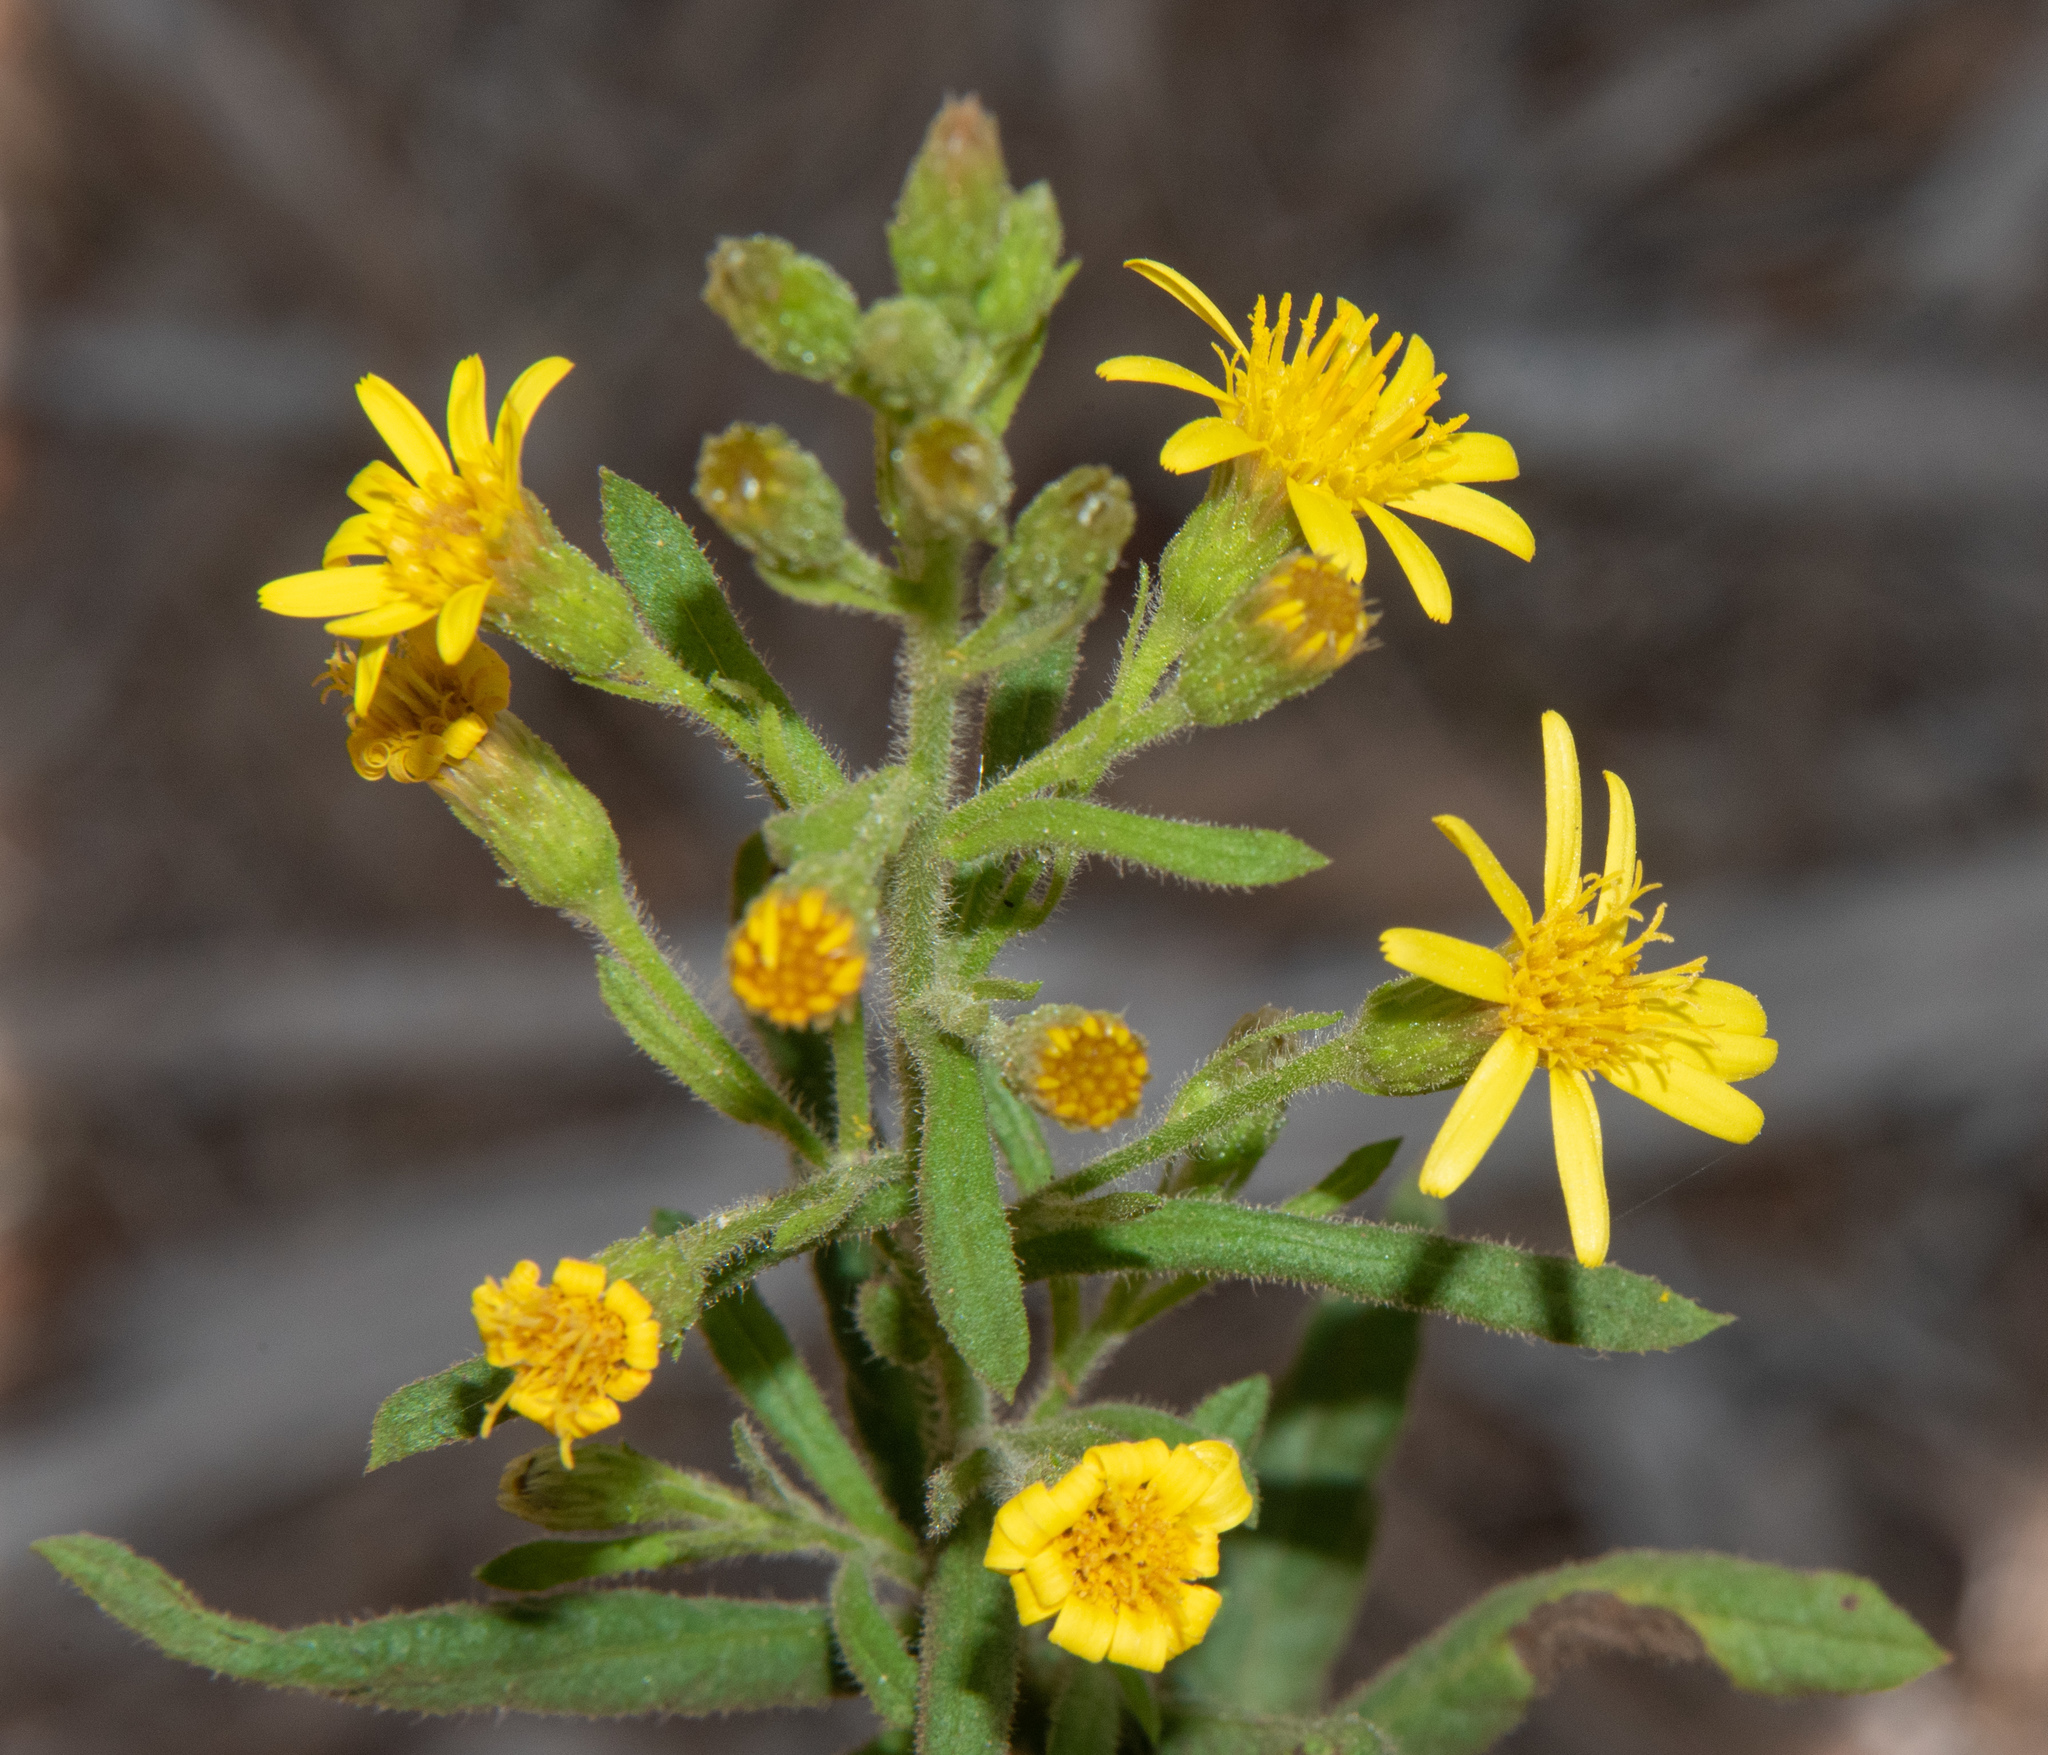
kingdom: Plantae
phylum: Tracheophyta
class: Magnoliopsida
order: Asterales
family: Asteraceae
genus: Dittrichia
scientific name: Dittrichia viscosa
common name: Woody fleabane
